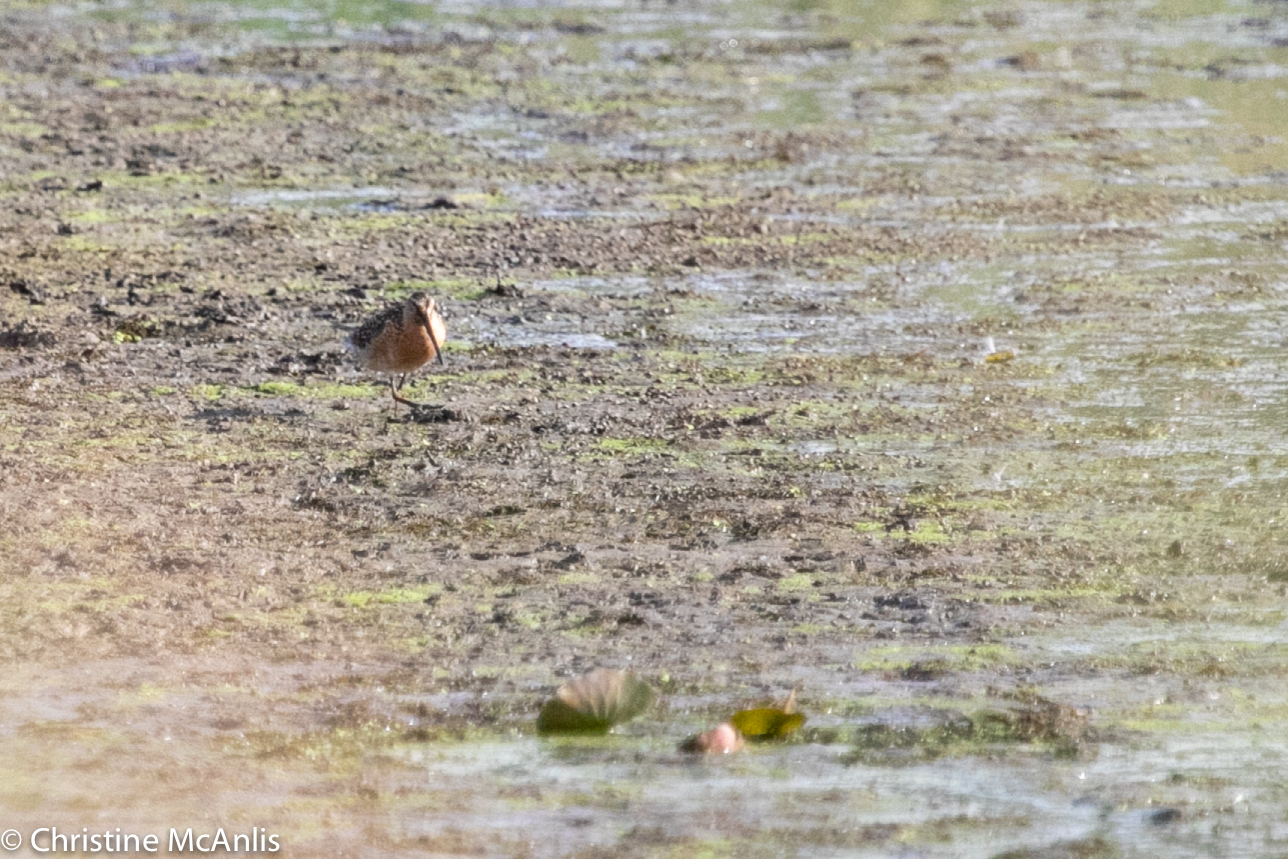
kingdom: Animalia
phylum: Chordata
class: Aves
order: Charadriiformes
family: Scolopacidae
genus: Limnodromus
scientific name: Limnodromus griseus
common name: Short-billed dowitcher
